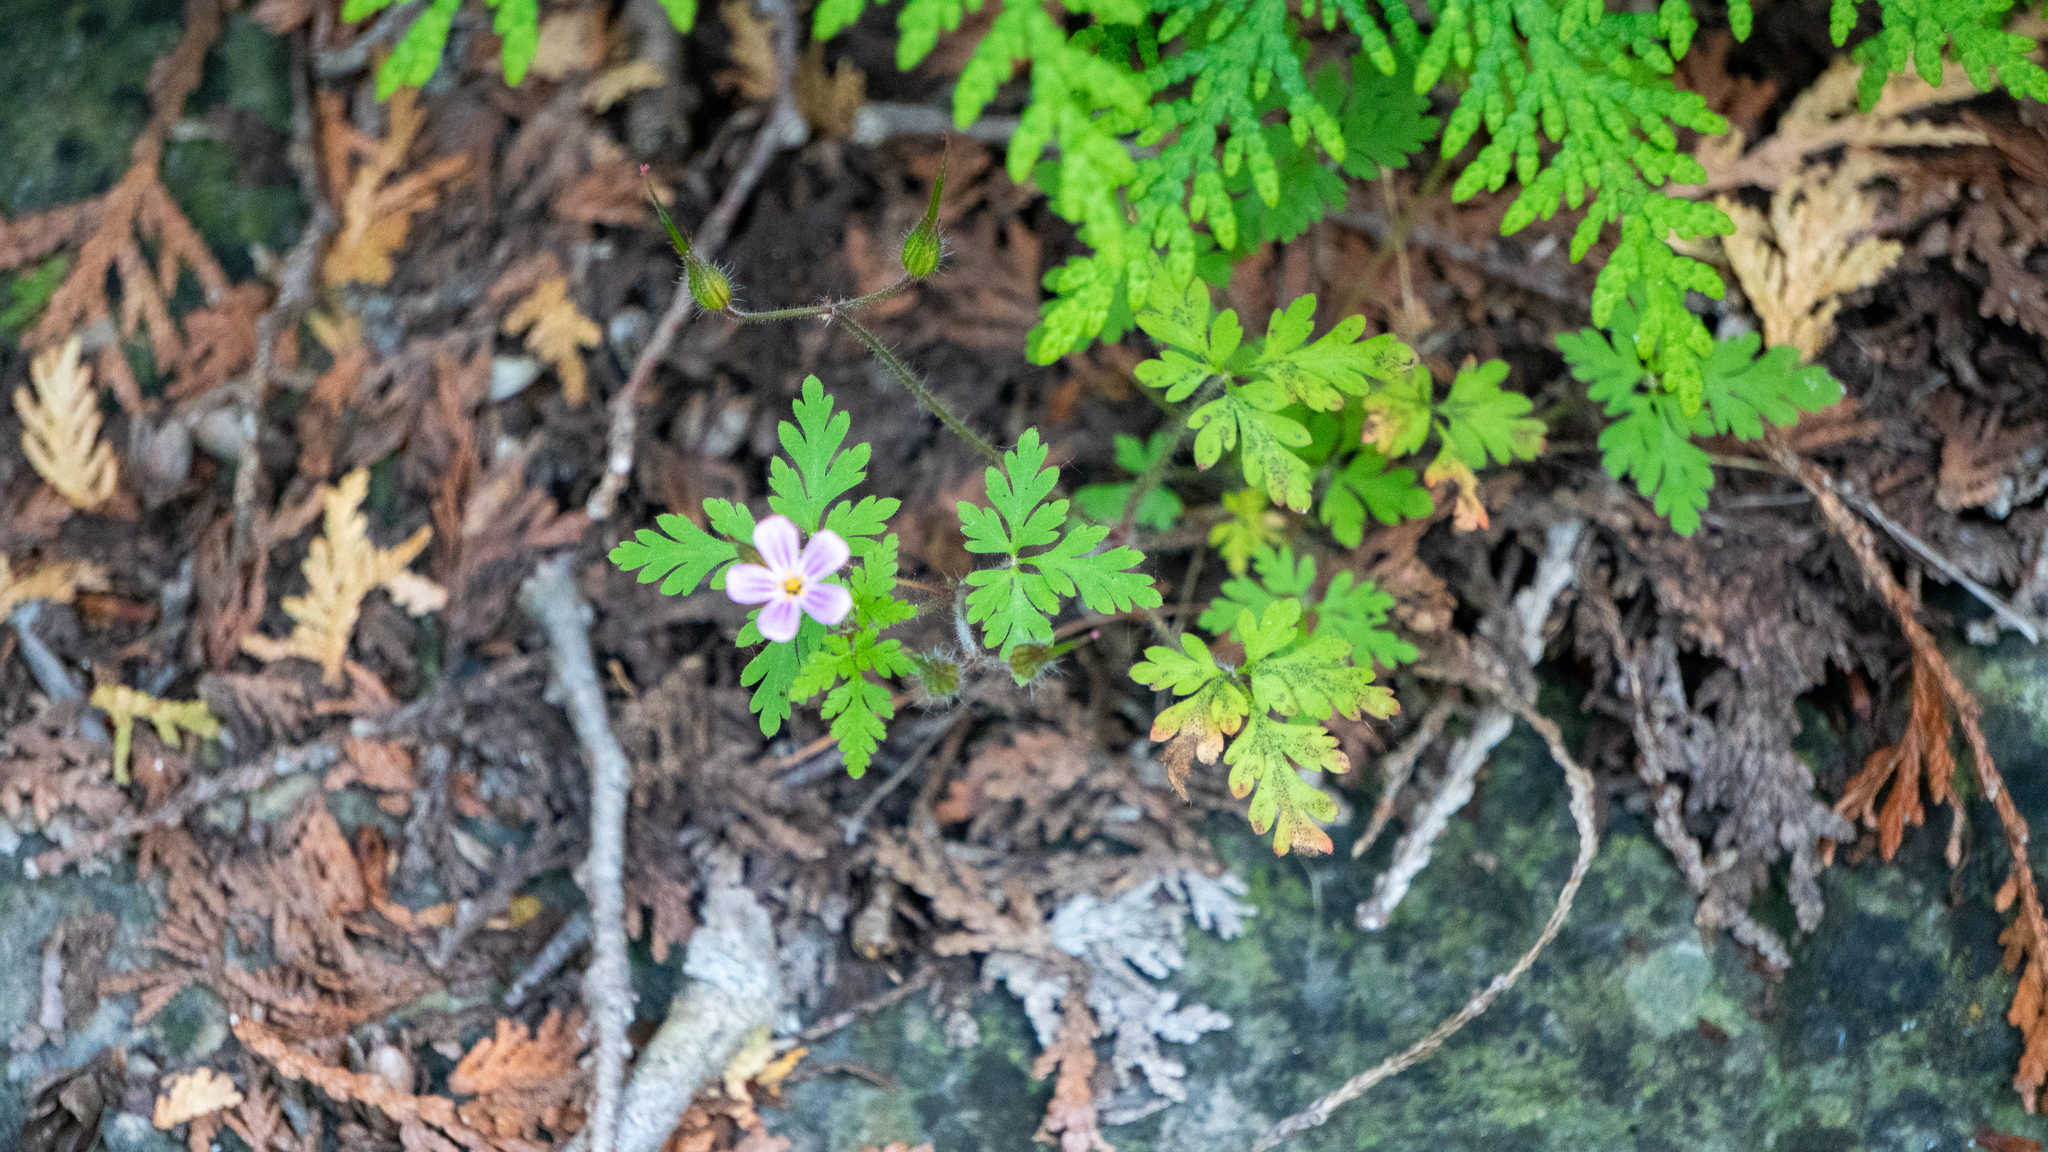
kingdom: Plantae
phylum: Tracheophyta
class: Magnoliopsida
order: Geraniales
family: Geraniaceae
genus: Geranium
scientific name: Geranium robertianum
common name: Herb-robert
